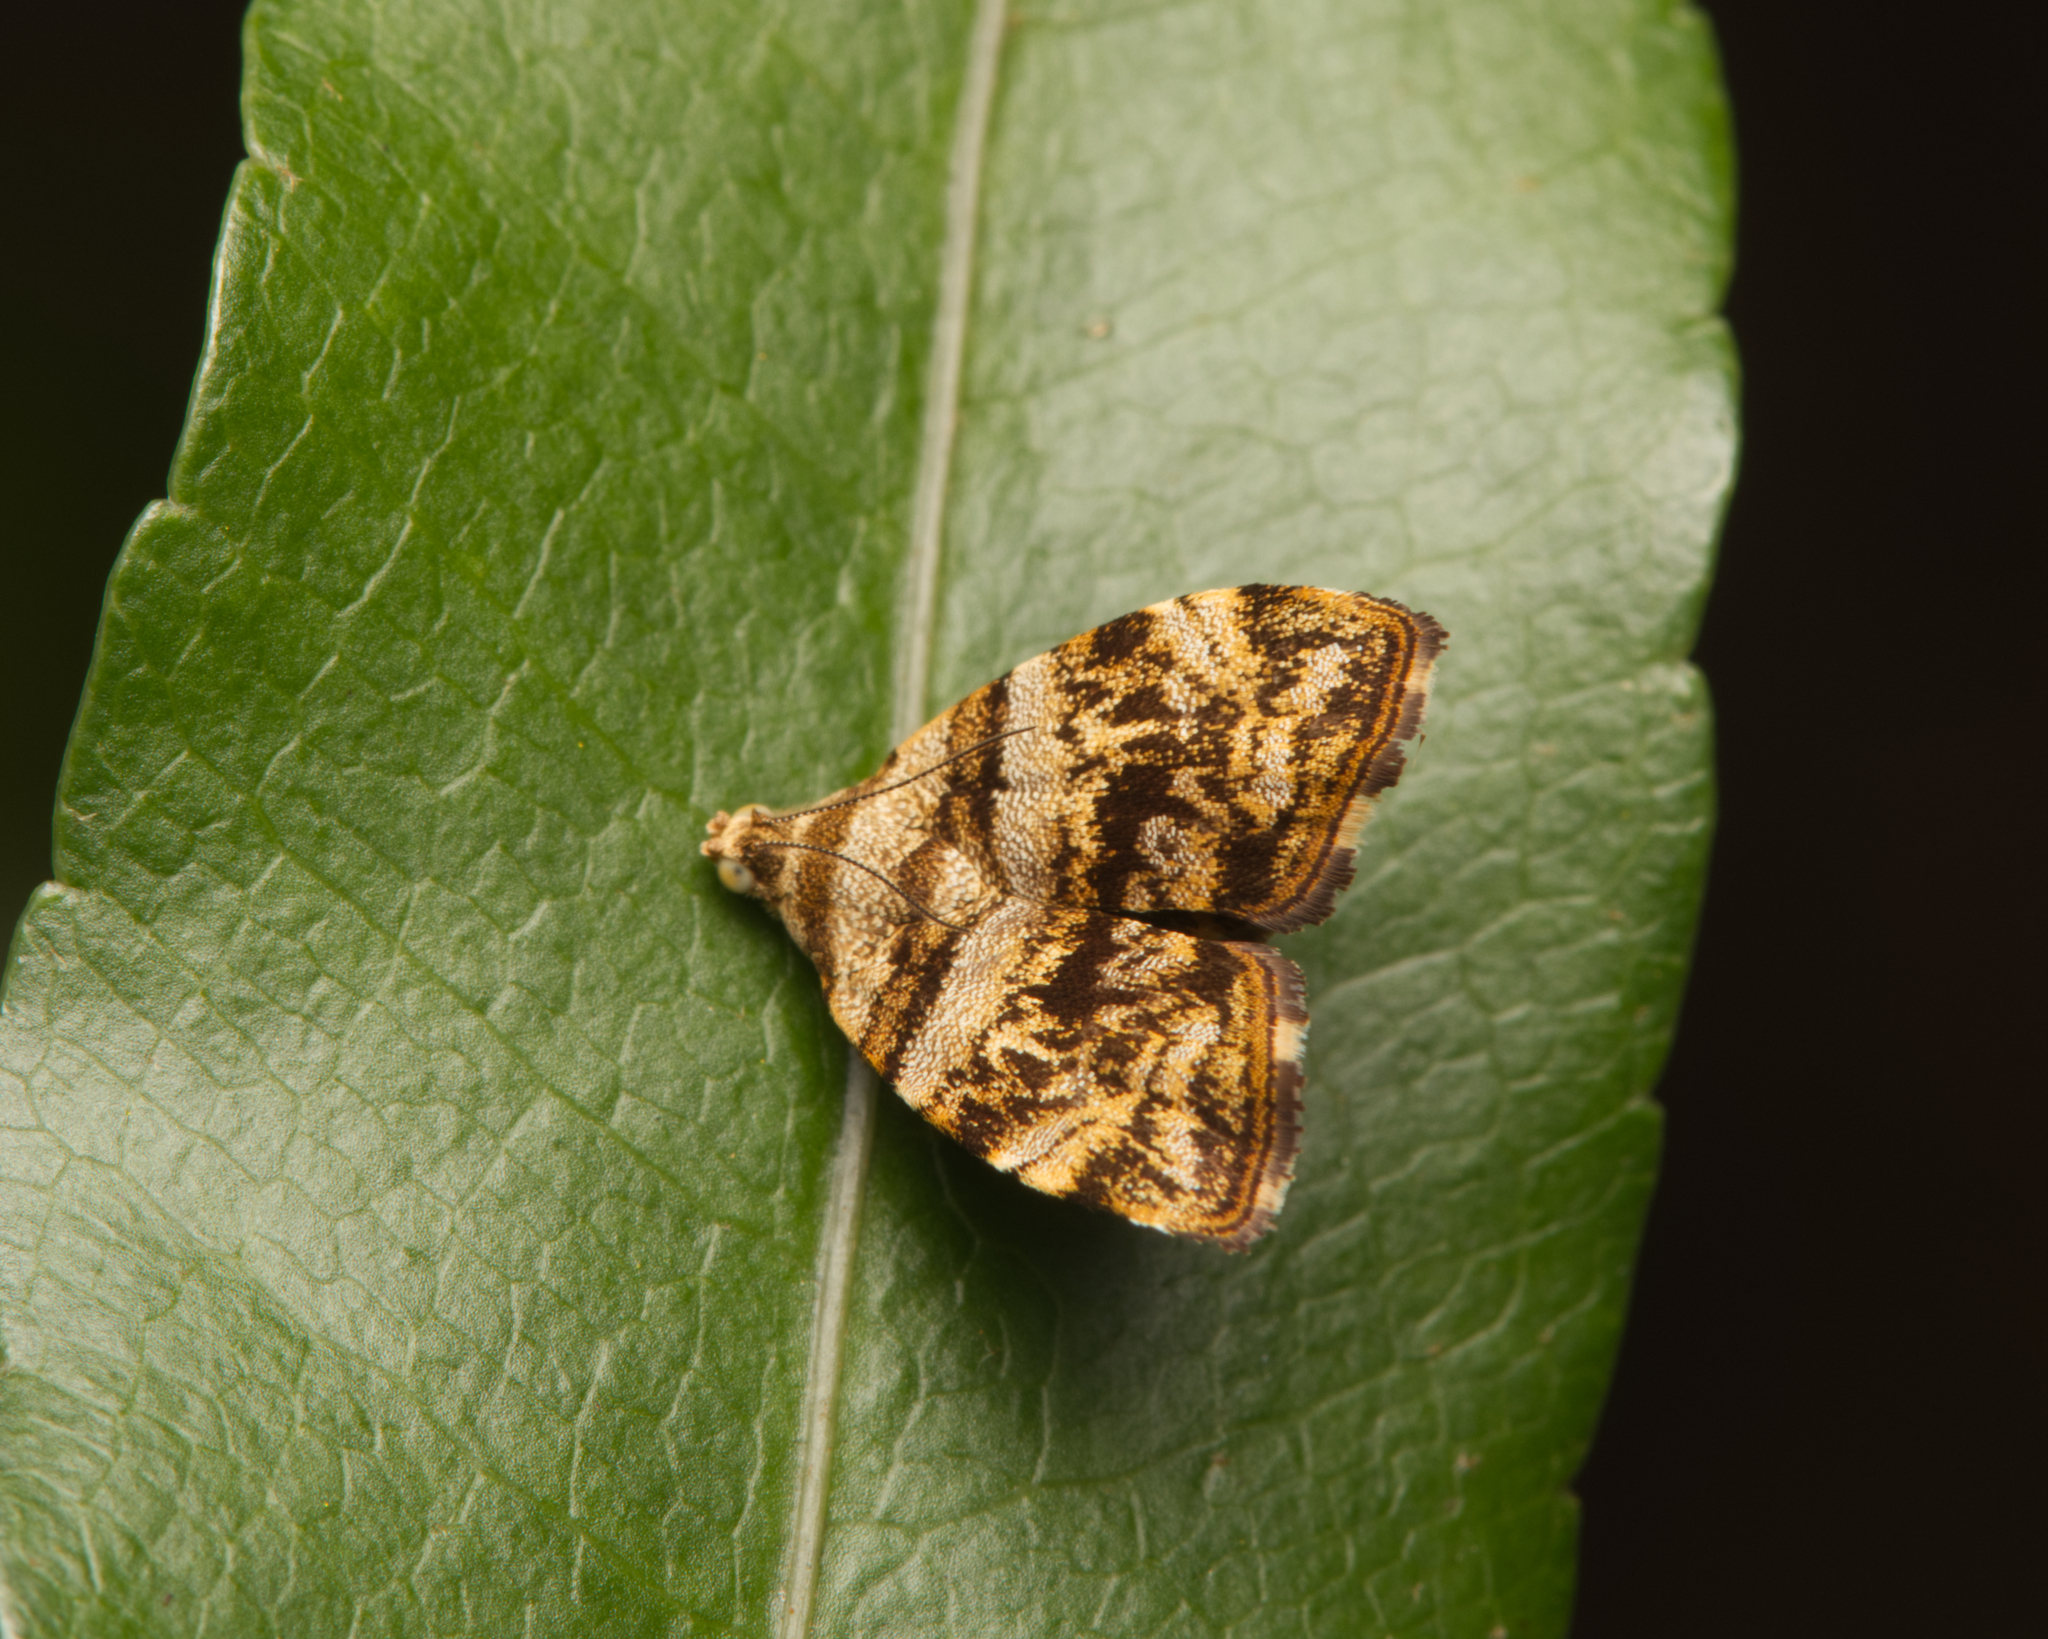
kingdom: Animalia
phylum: Arthropoda
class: Insecta
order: Lepidoptera
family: Choreutidae
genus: Choreutis
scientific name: Choreutis ophiosema
